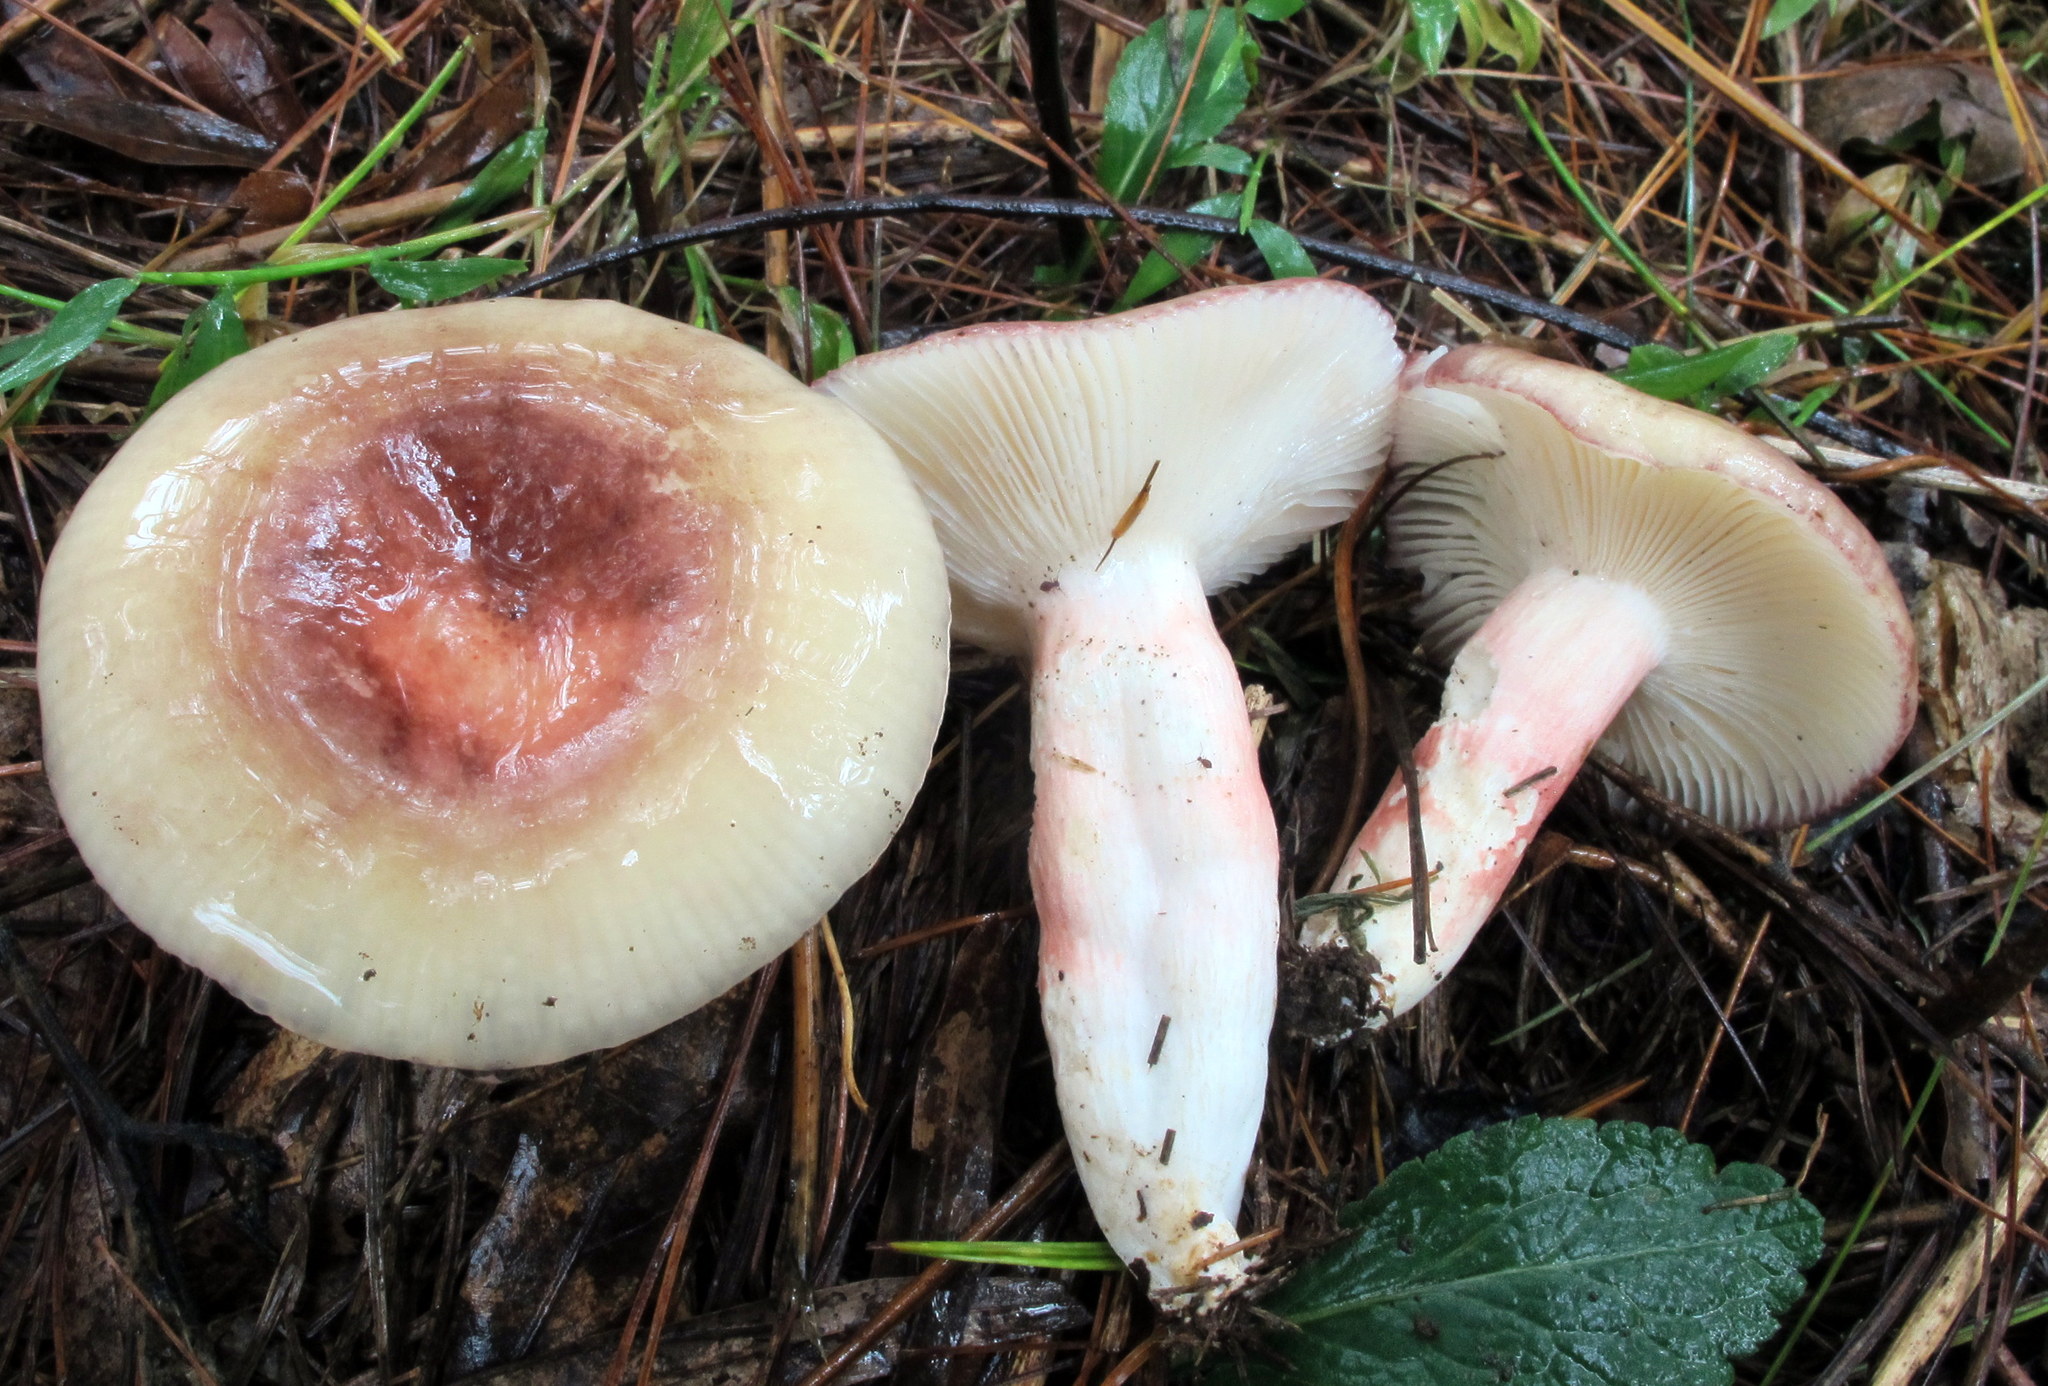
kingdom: Fungi
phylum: Basidiomycota
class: Agaricomycetes
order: Russulales
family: Russulaceae
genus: Russula
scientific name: Russula mariae
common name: Purple-bloom russula
